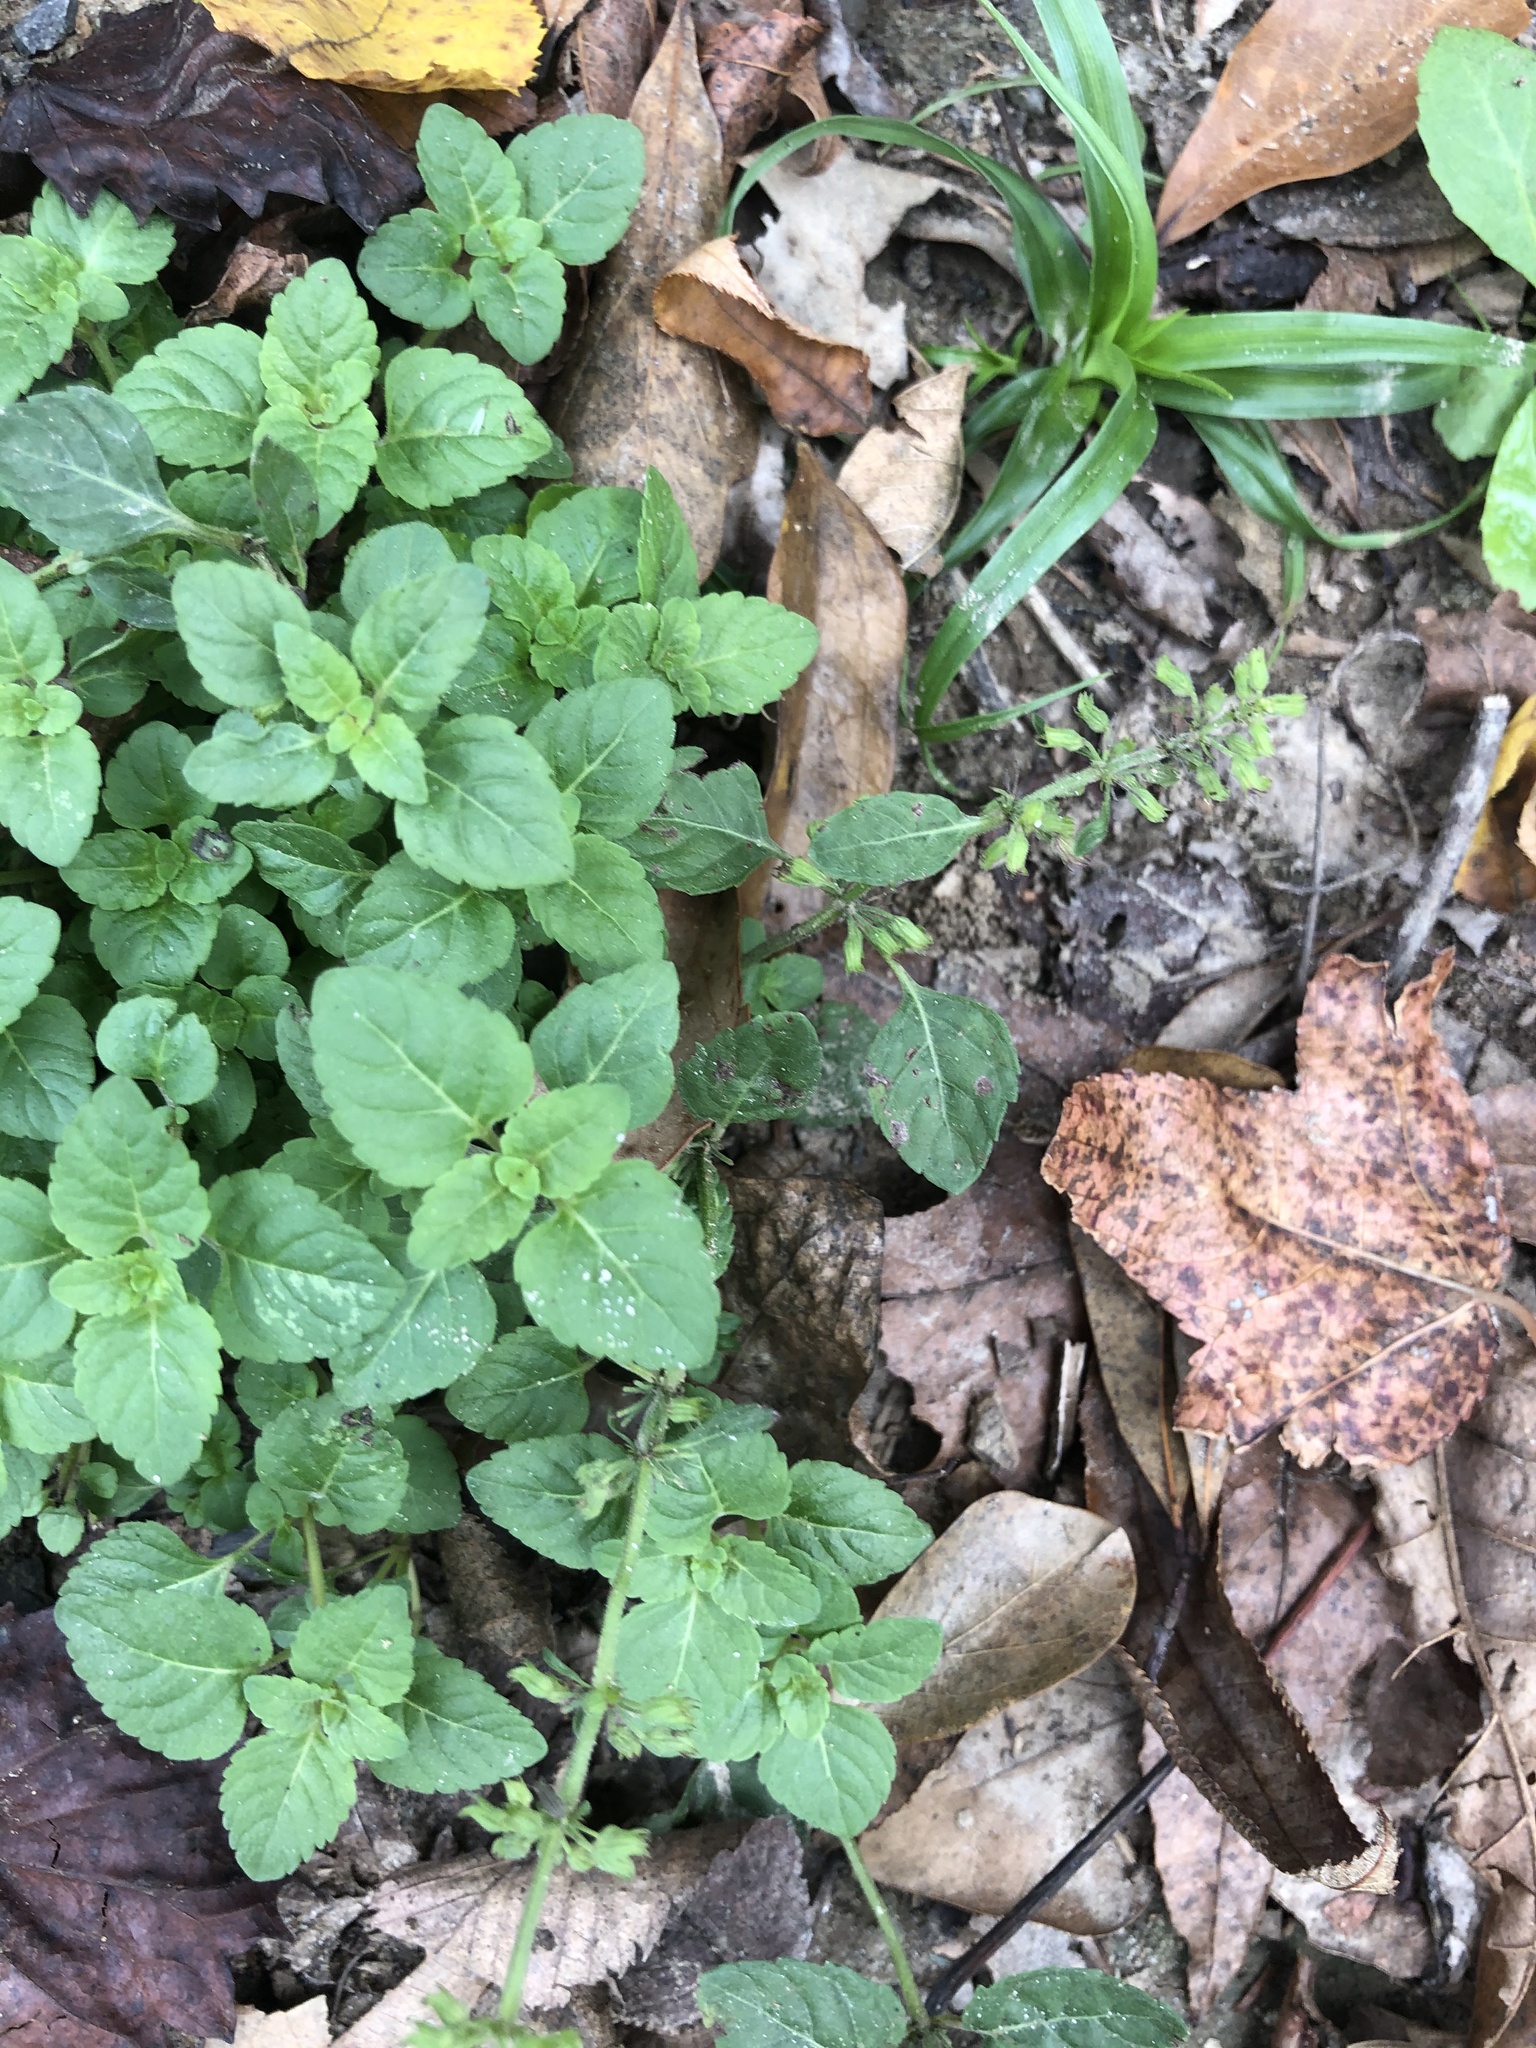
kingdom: Plantae
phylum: Tracheophyta
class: Magnoliopsida
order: Lamiales
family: Lamiaceae
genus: Clinopodium
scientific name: Clinopodium gracile
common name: Slender wild basil
